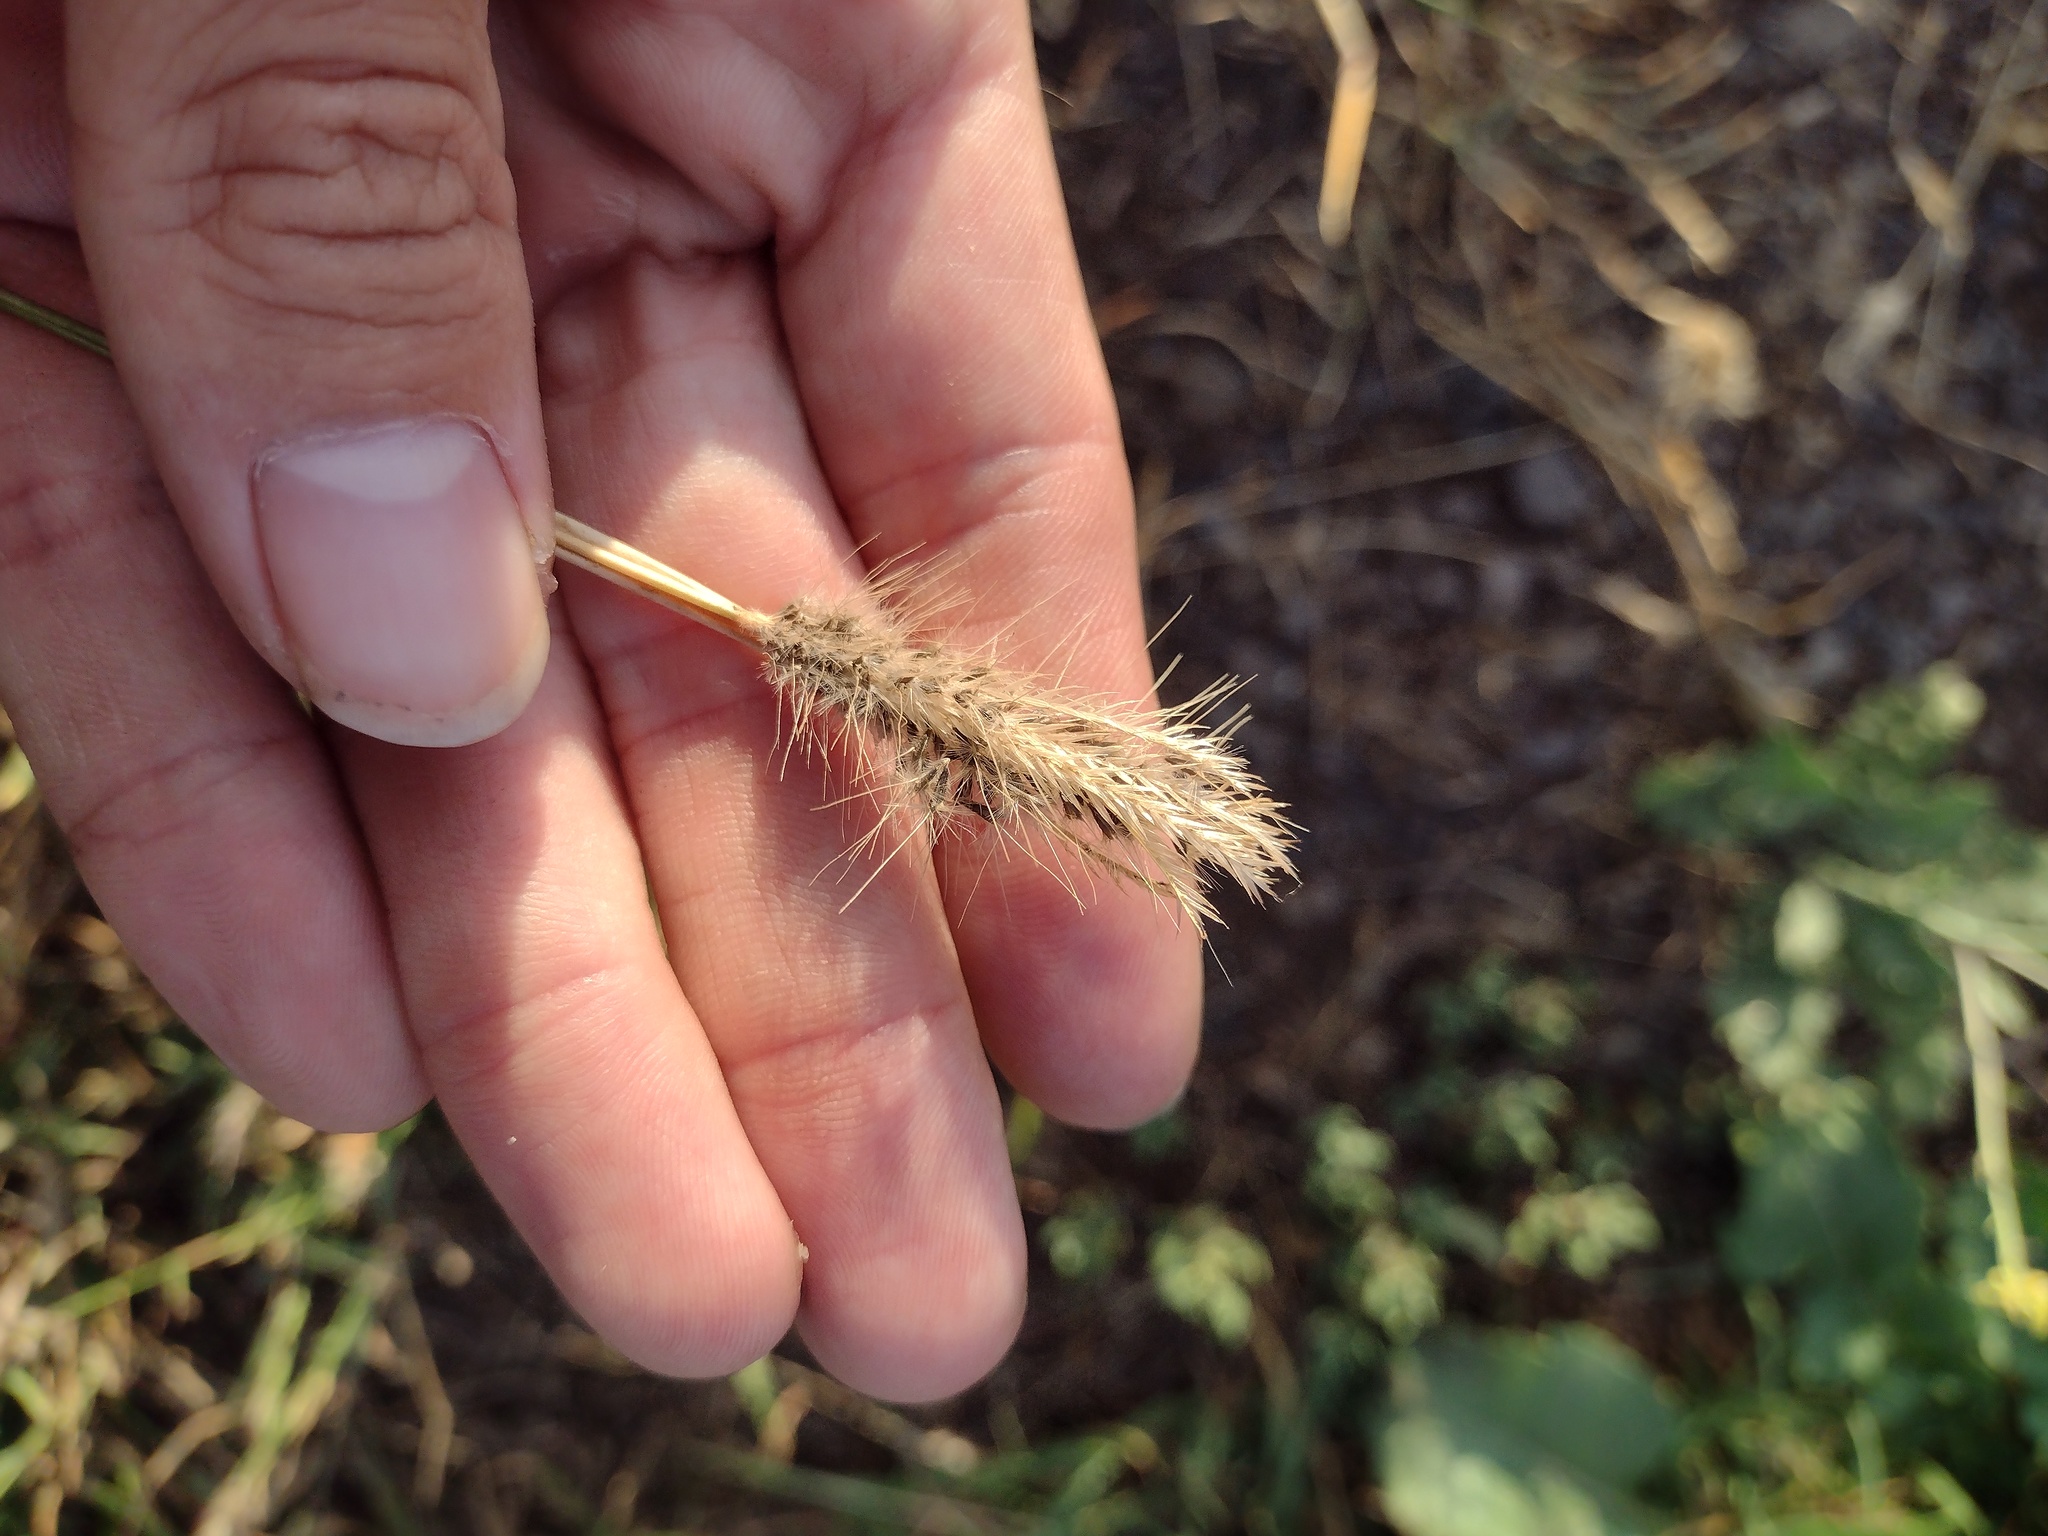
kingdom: Plantae
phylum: Tracheophyta
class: Liliopsida
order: Poales
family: Poaceae
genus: Chloris
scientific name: Chloris virgata
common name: Feathery rhodes-grass
